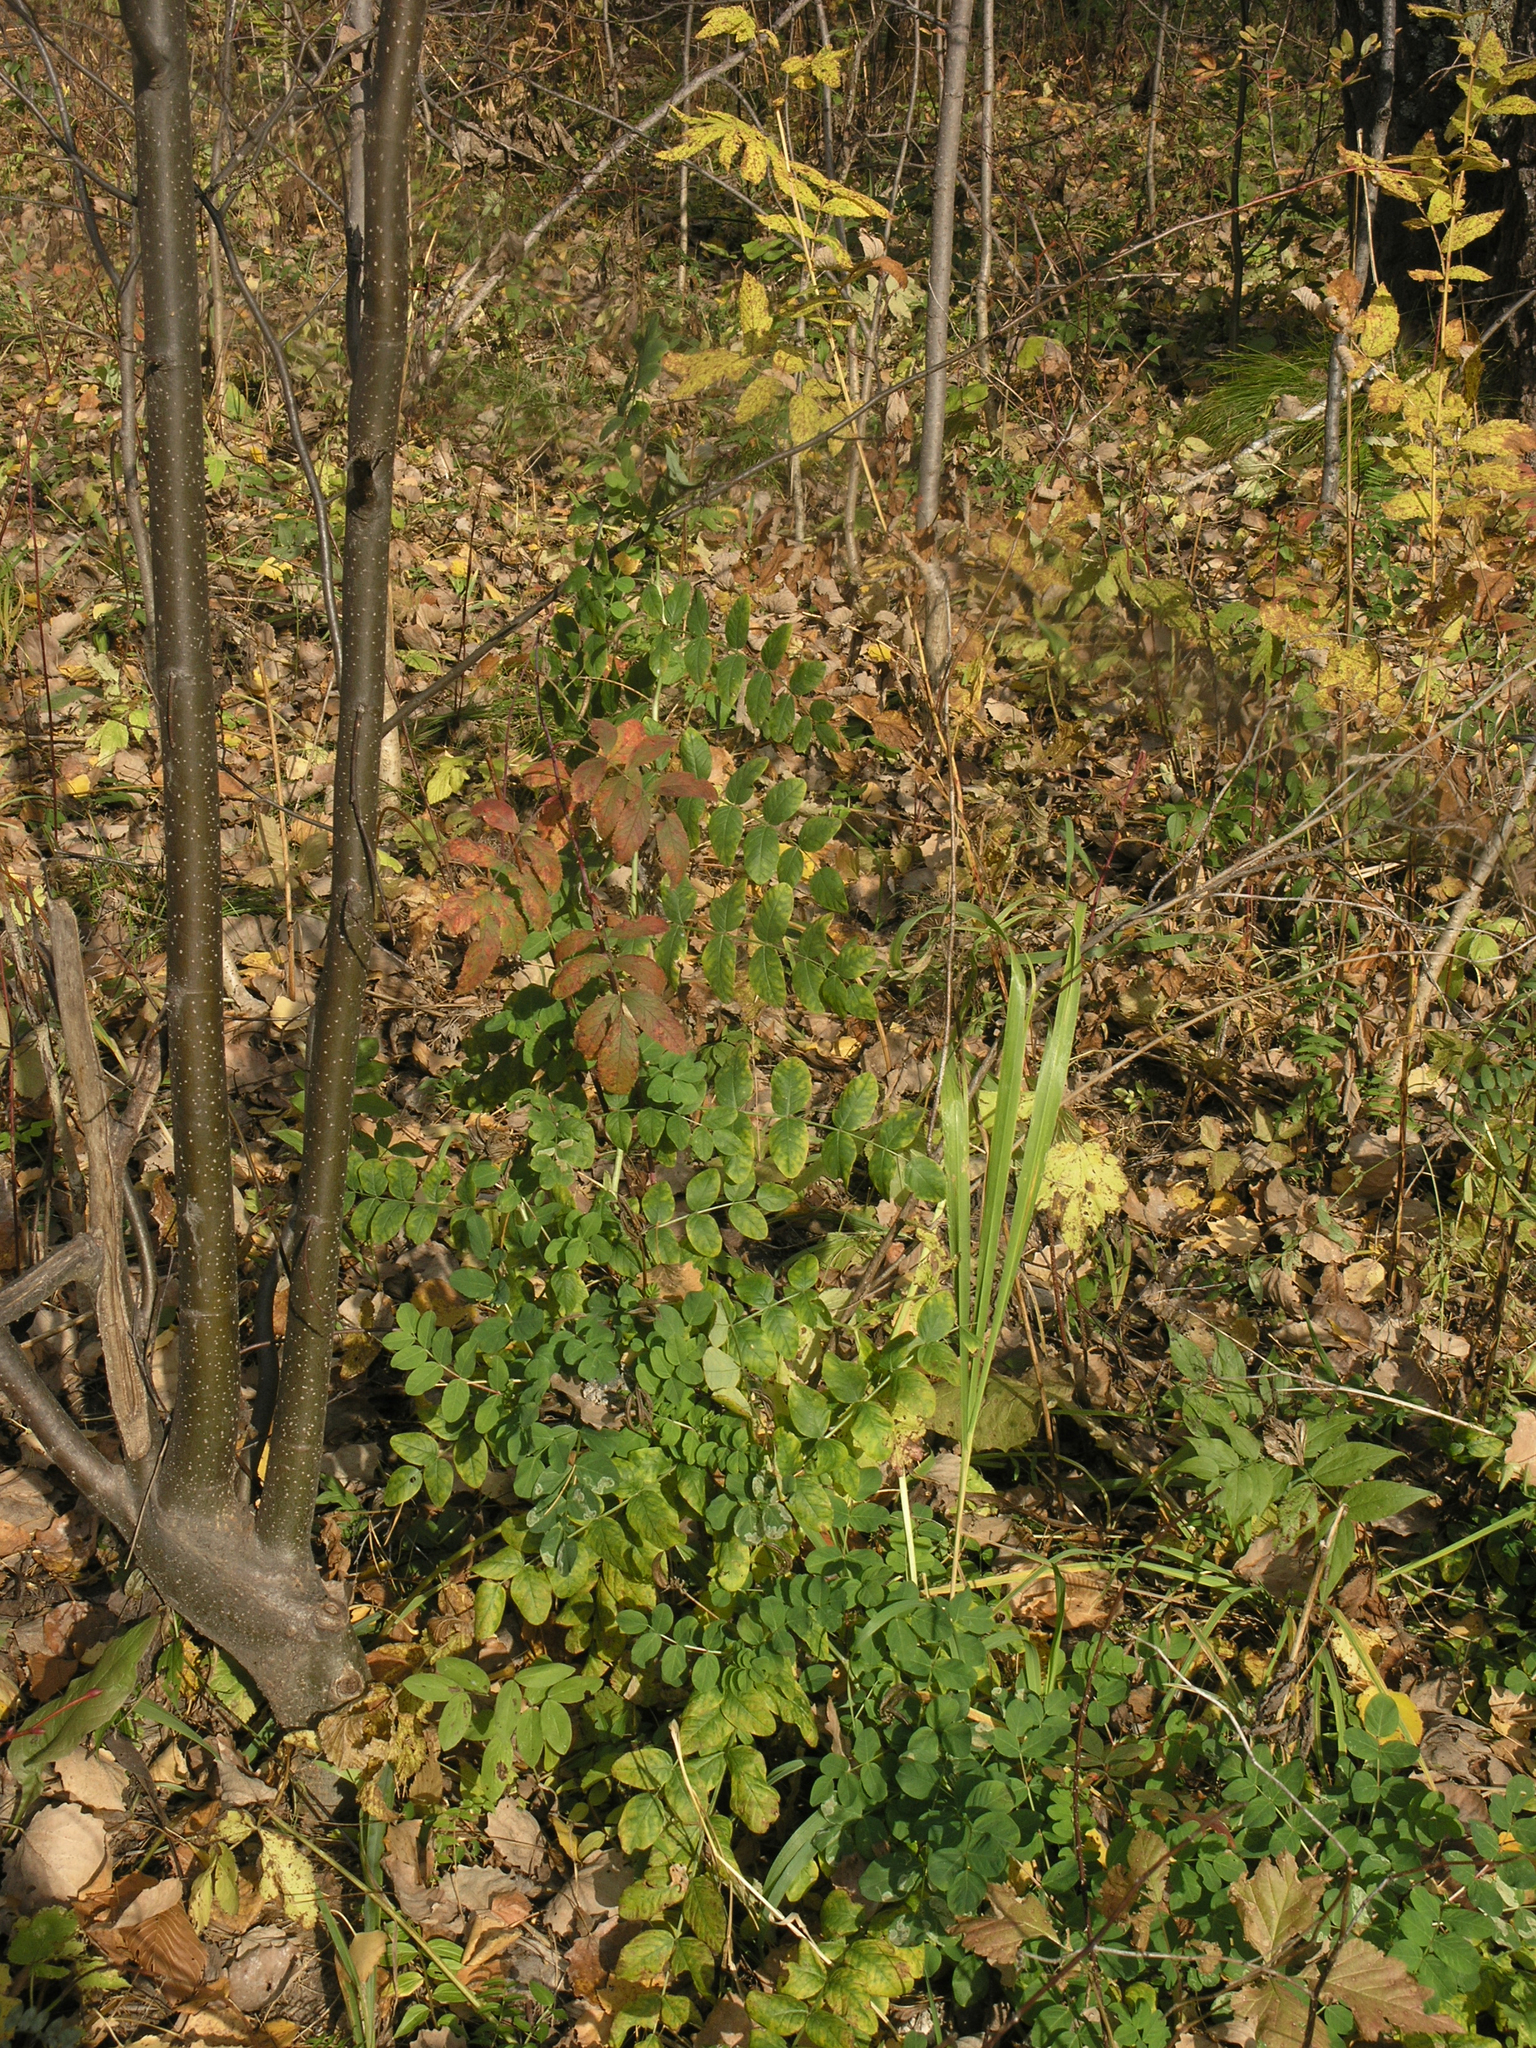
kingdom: Plantae
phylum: Tracheophyta
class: Magnoliopsida
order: Fabales
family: Fabaceae
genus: Astragalus
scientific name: Astragalus glycyphyllos
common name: Wild liquorice
